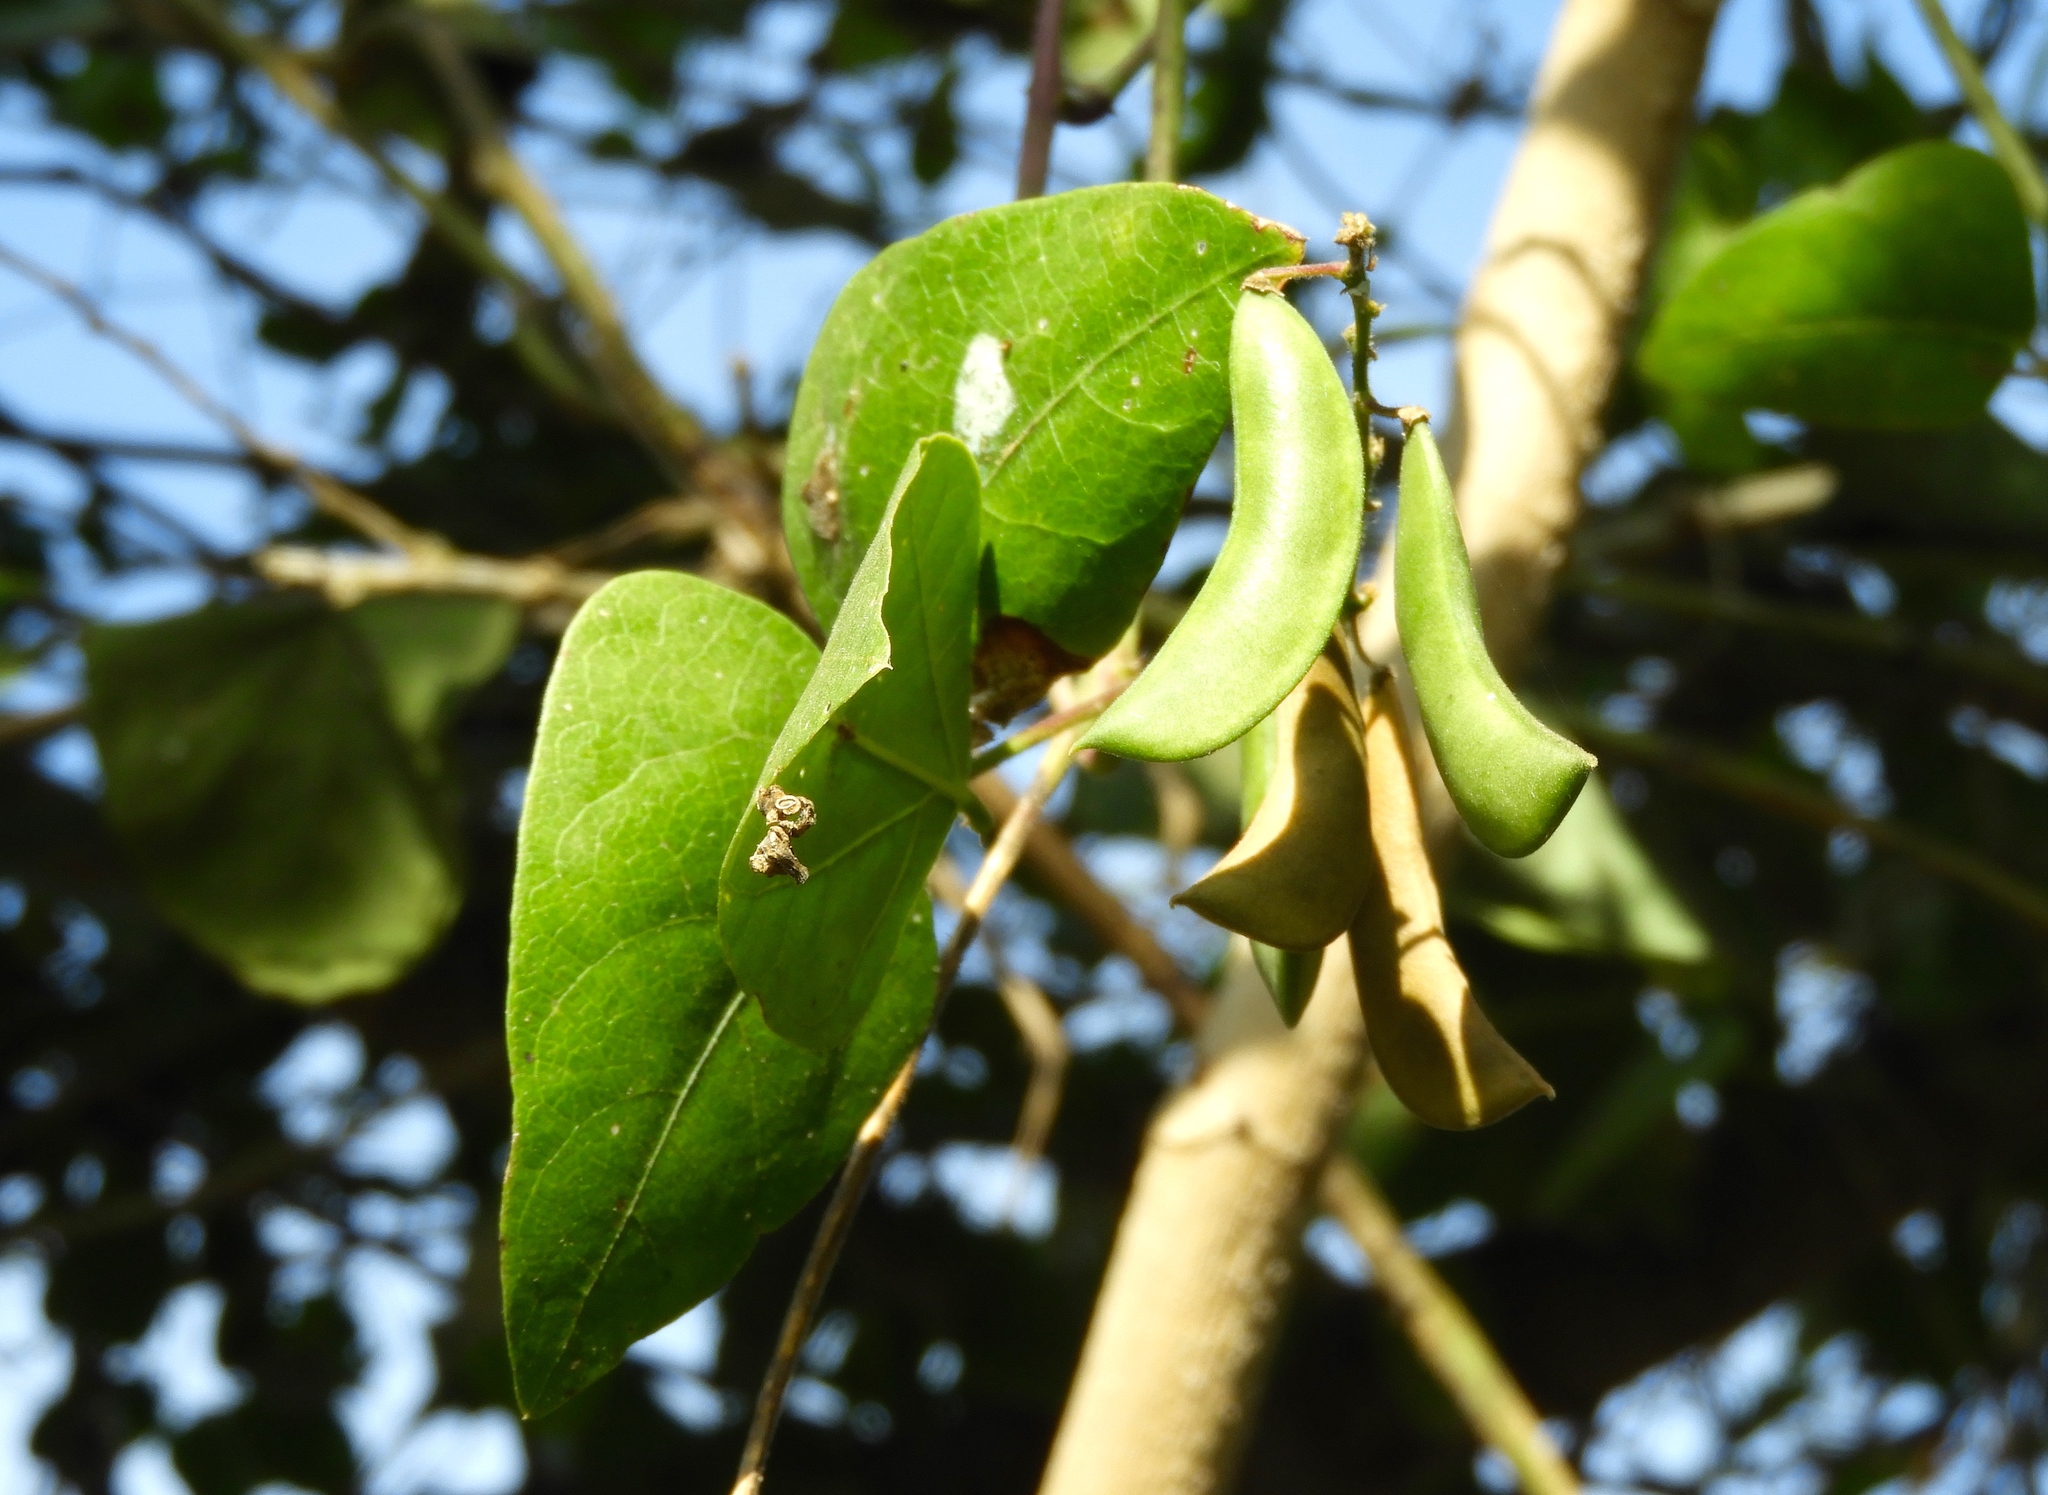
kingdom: Plantae
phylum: Tracheophyta
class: Magnoliopsida
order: Fabales
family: Fabaceae
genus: Phaseolus
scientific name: Phaseolus lunatus
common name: Sieva bean
